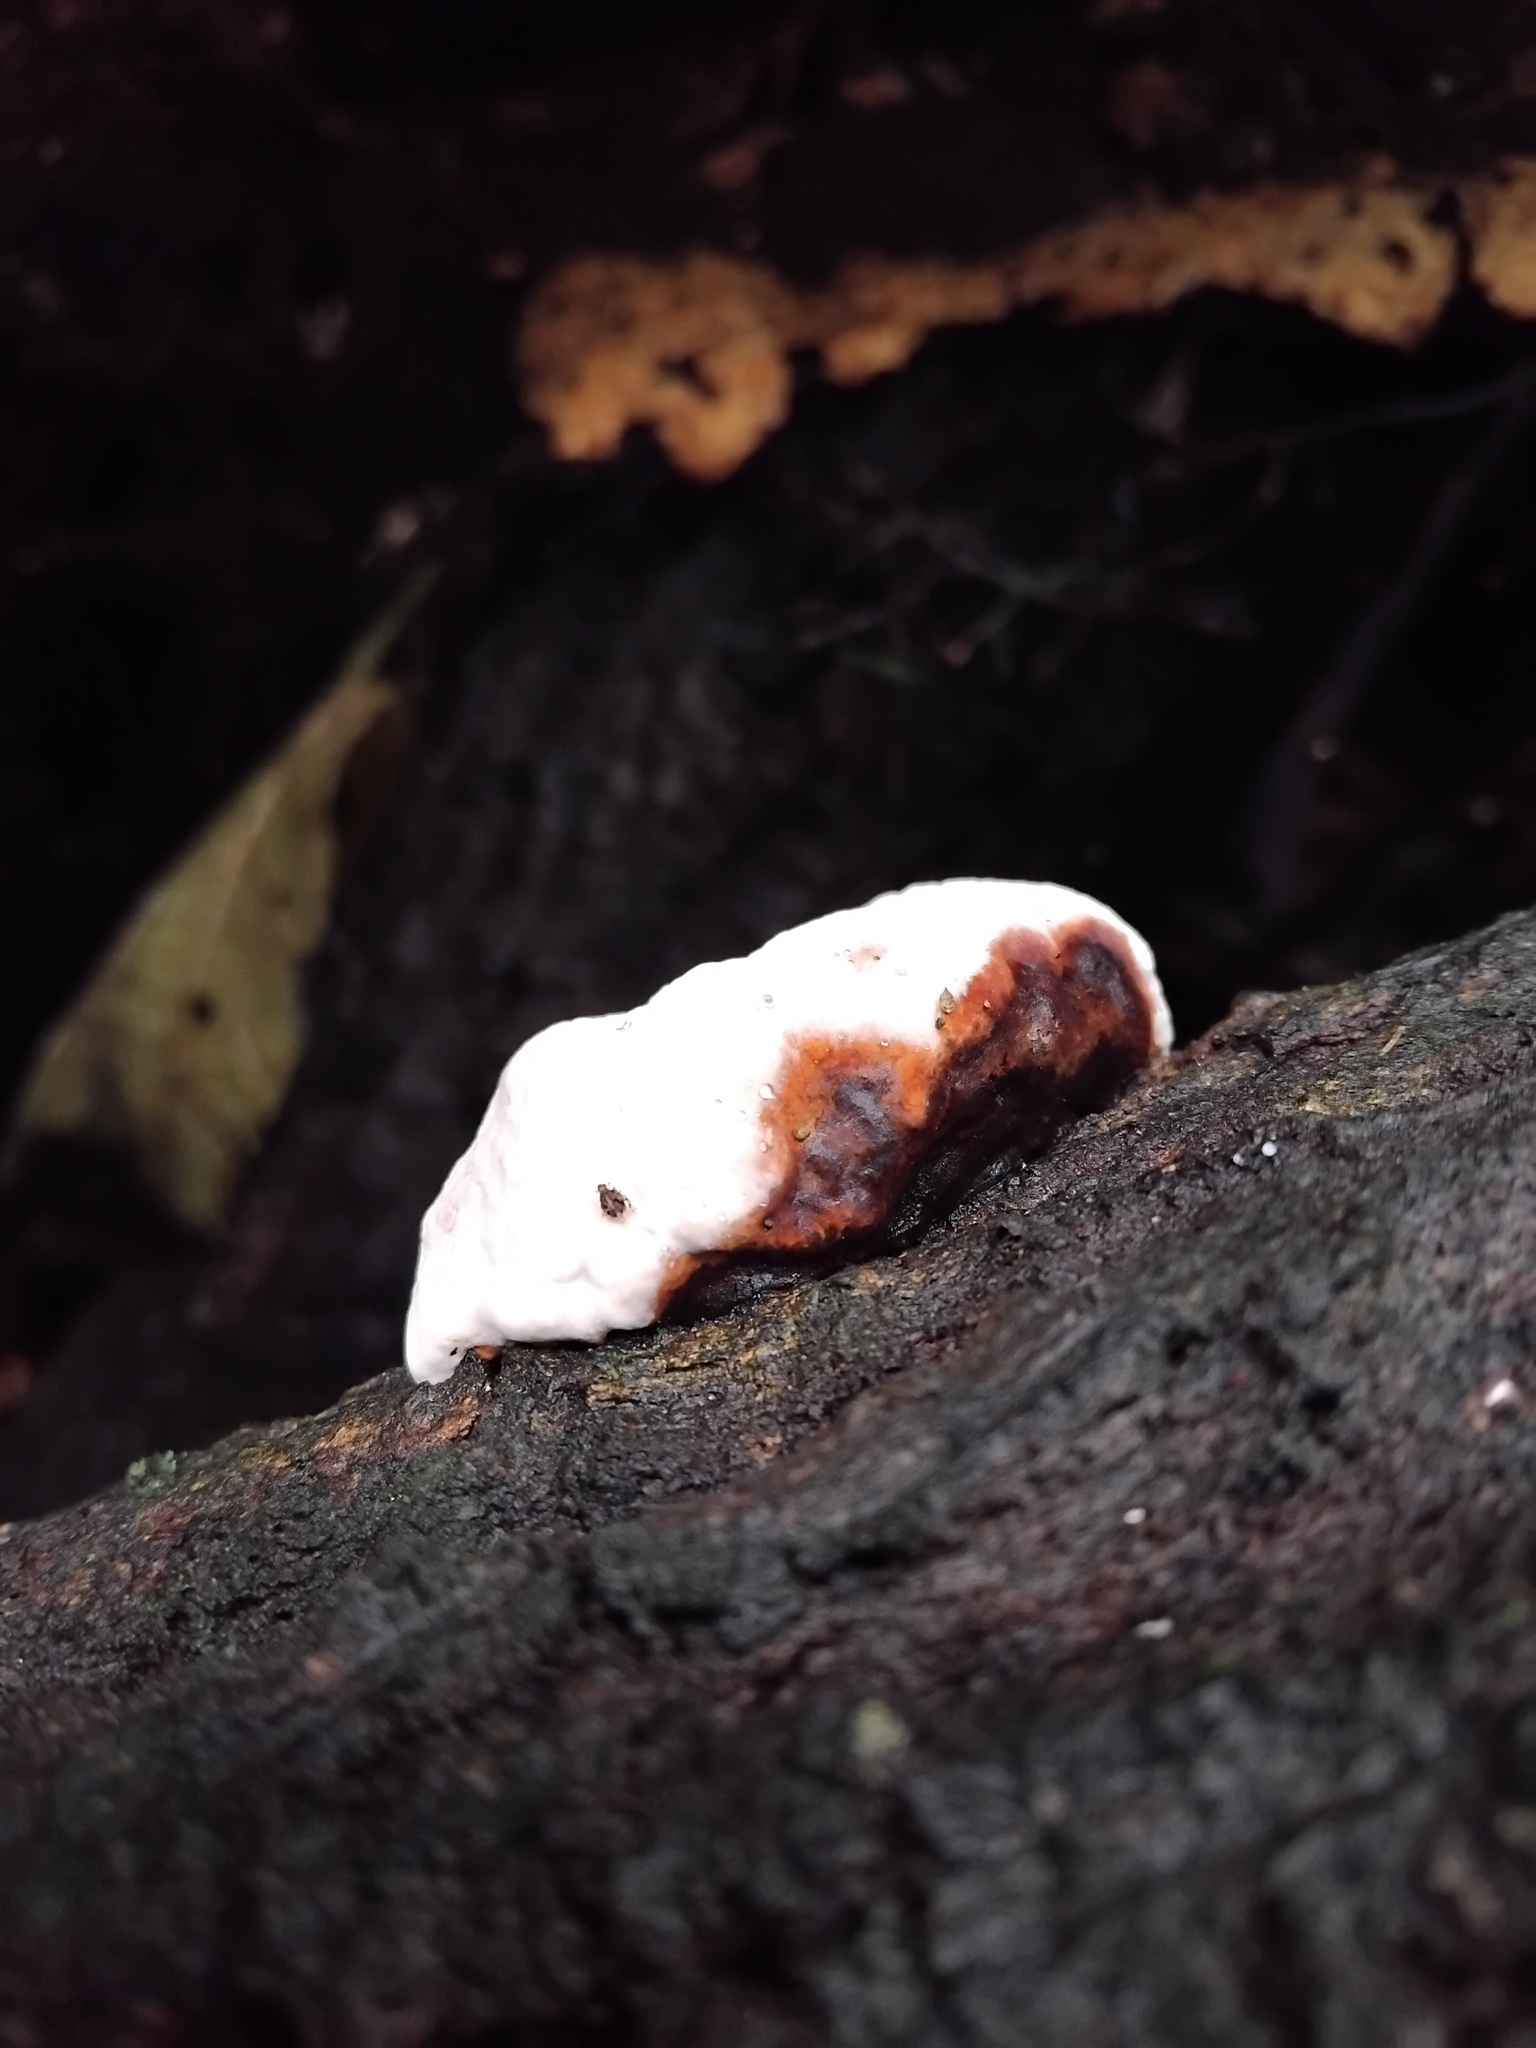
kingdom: Fungi
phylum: Basidiomycota
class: Agaricomycetes
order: Russulales
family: Bondarzewiaceae
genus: Heterobasidion
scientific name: Heterobasidion araucariae
